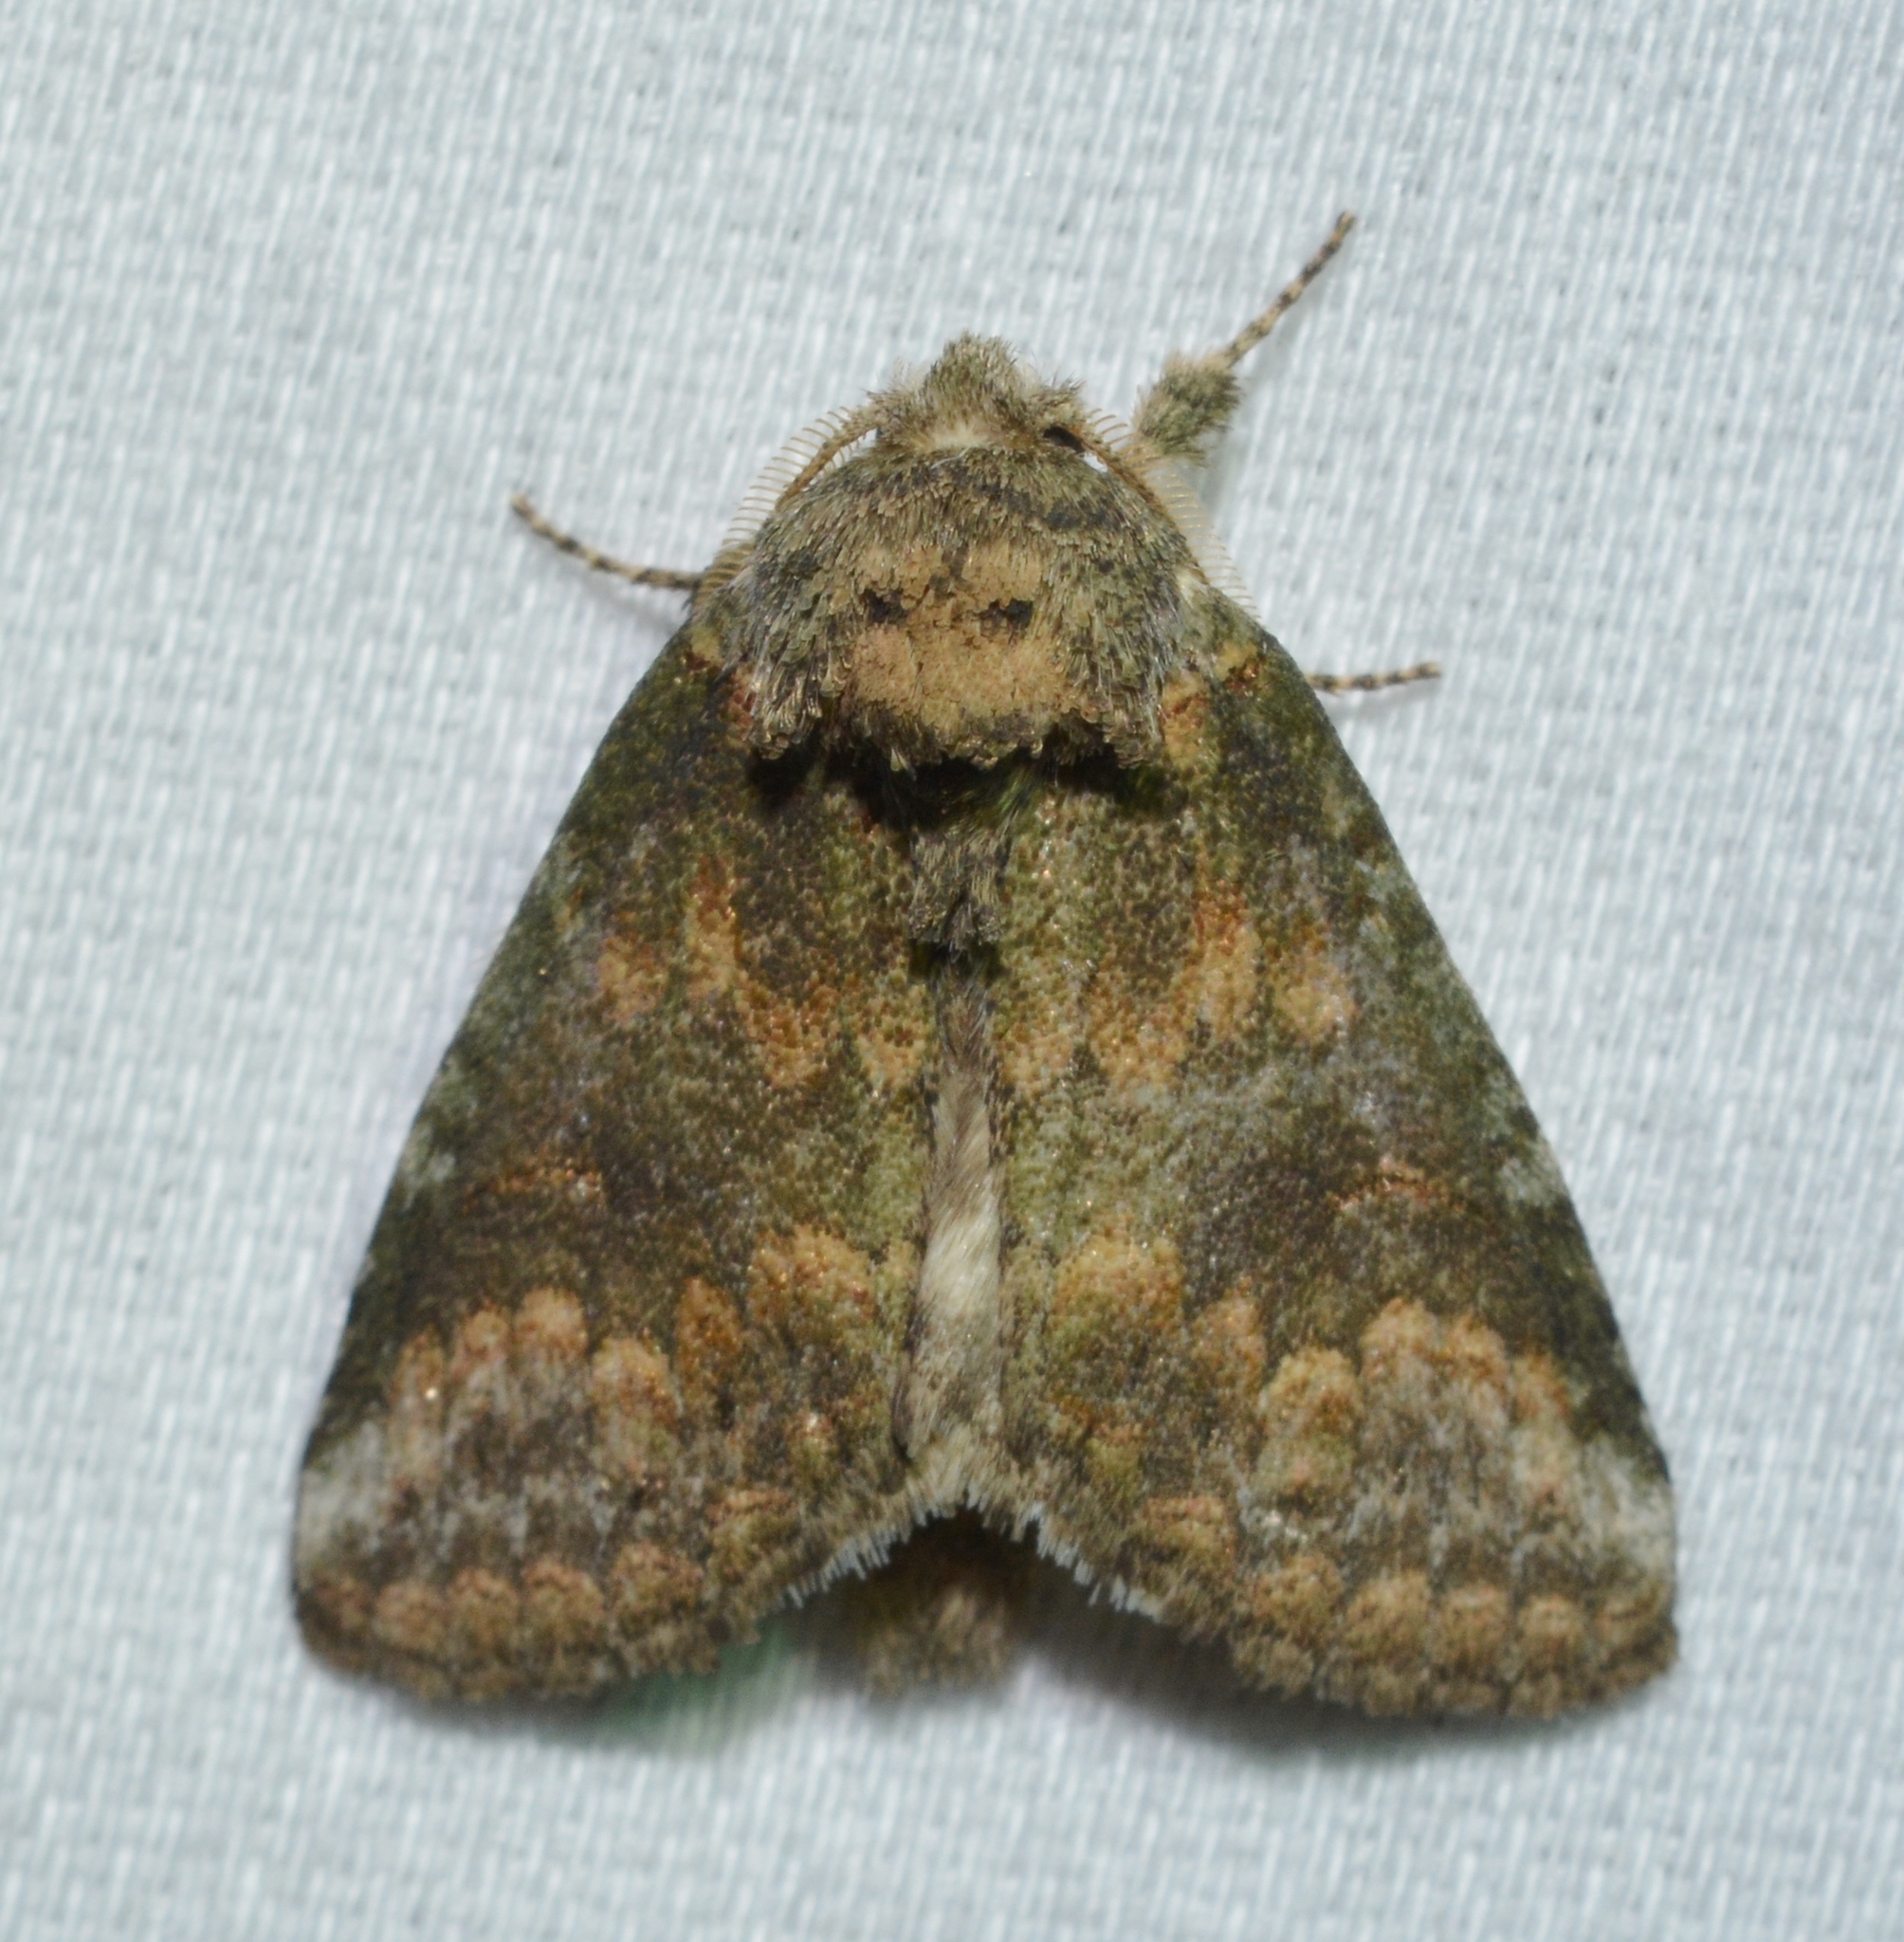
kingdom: Animalia
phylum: Arthropoda
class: Insecta
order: Lepidoptera
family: Notodontidae
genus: Rifargia
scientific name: Rifargia
